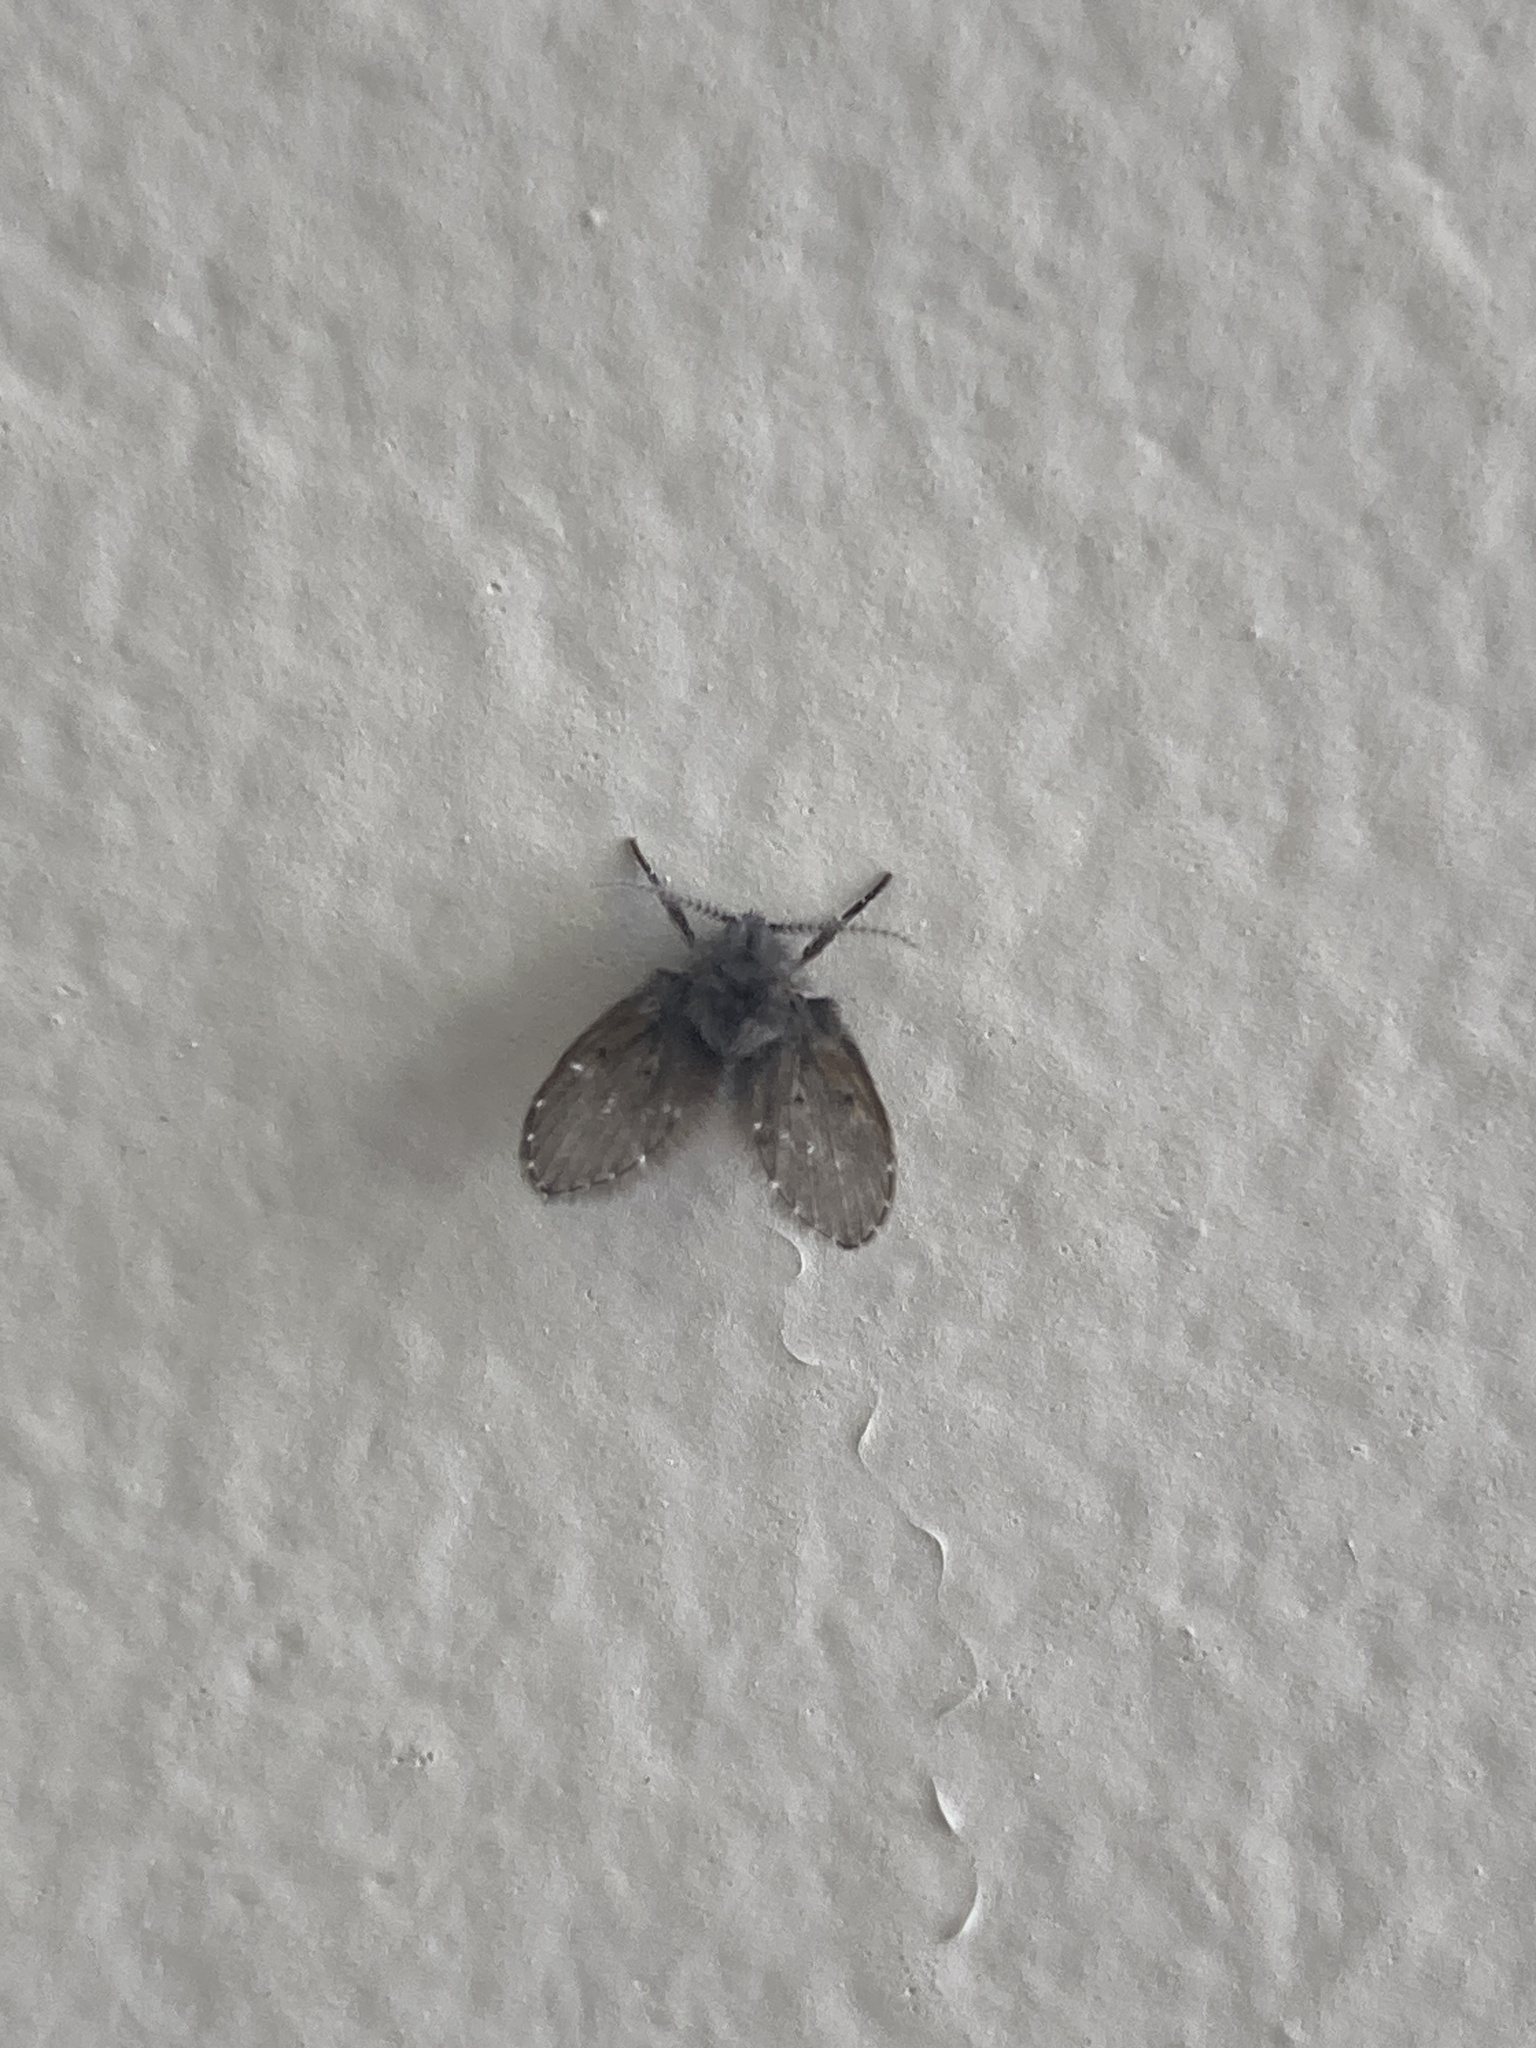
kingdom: Animalia
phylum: Arthropoda
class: Insecta
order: Diptera
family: Psychodidae
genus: Clogmia
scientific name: Clogmia albipunctatus
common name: White-spotted moth fly
